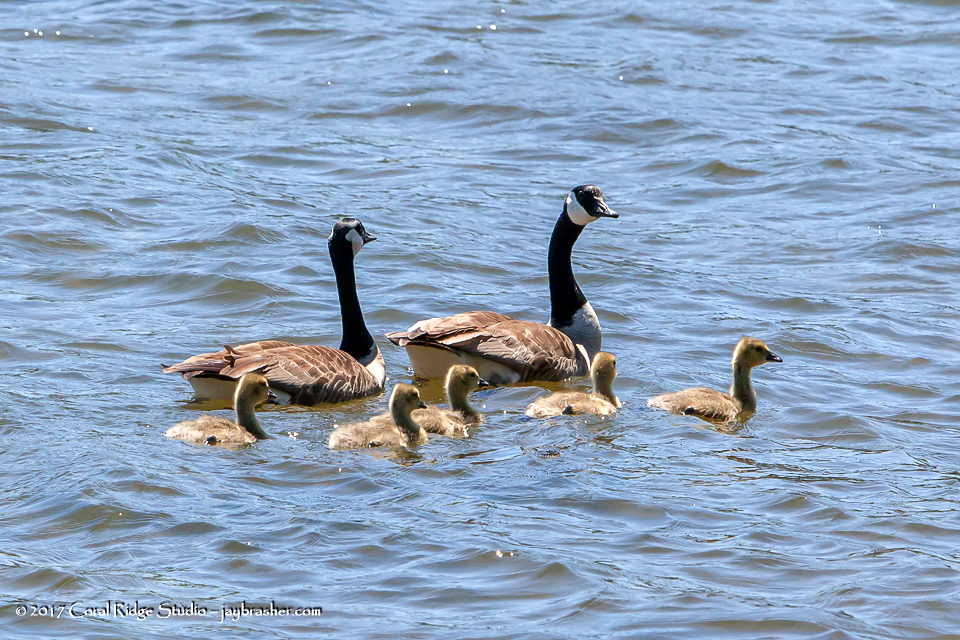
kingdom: Animalia
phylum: Chordata
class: Aves
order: Anseriformes
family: Anatidae
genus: Branta
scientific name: Branta canadensis
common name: Canada goose
